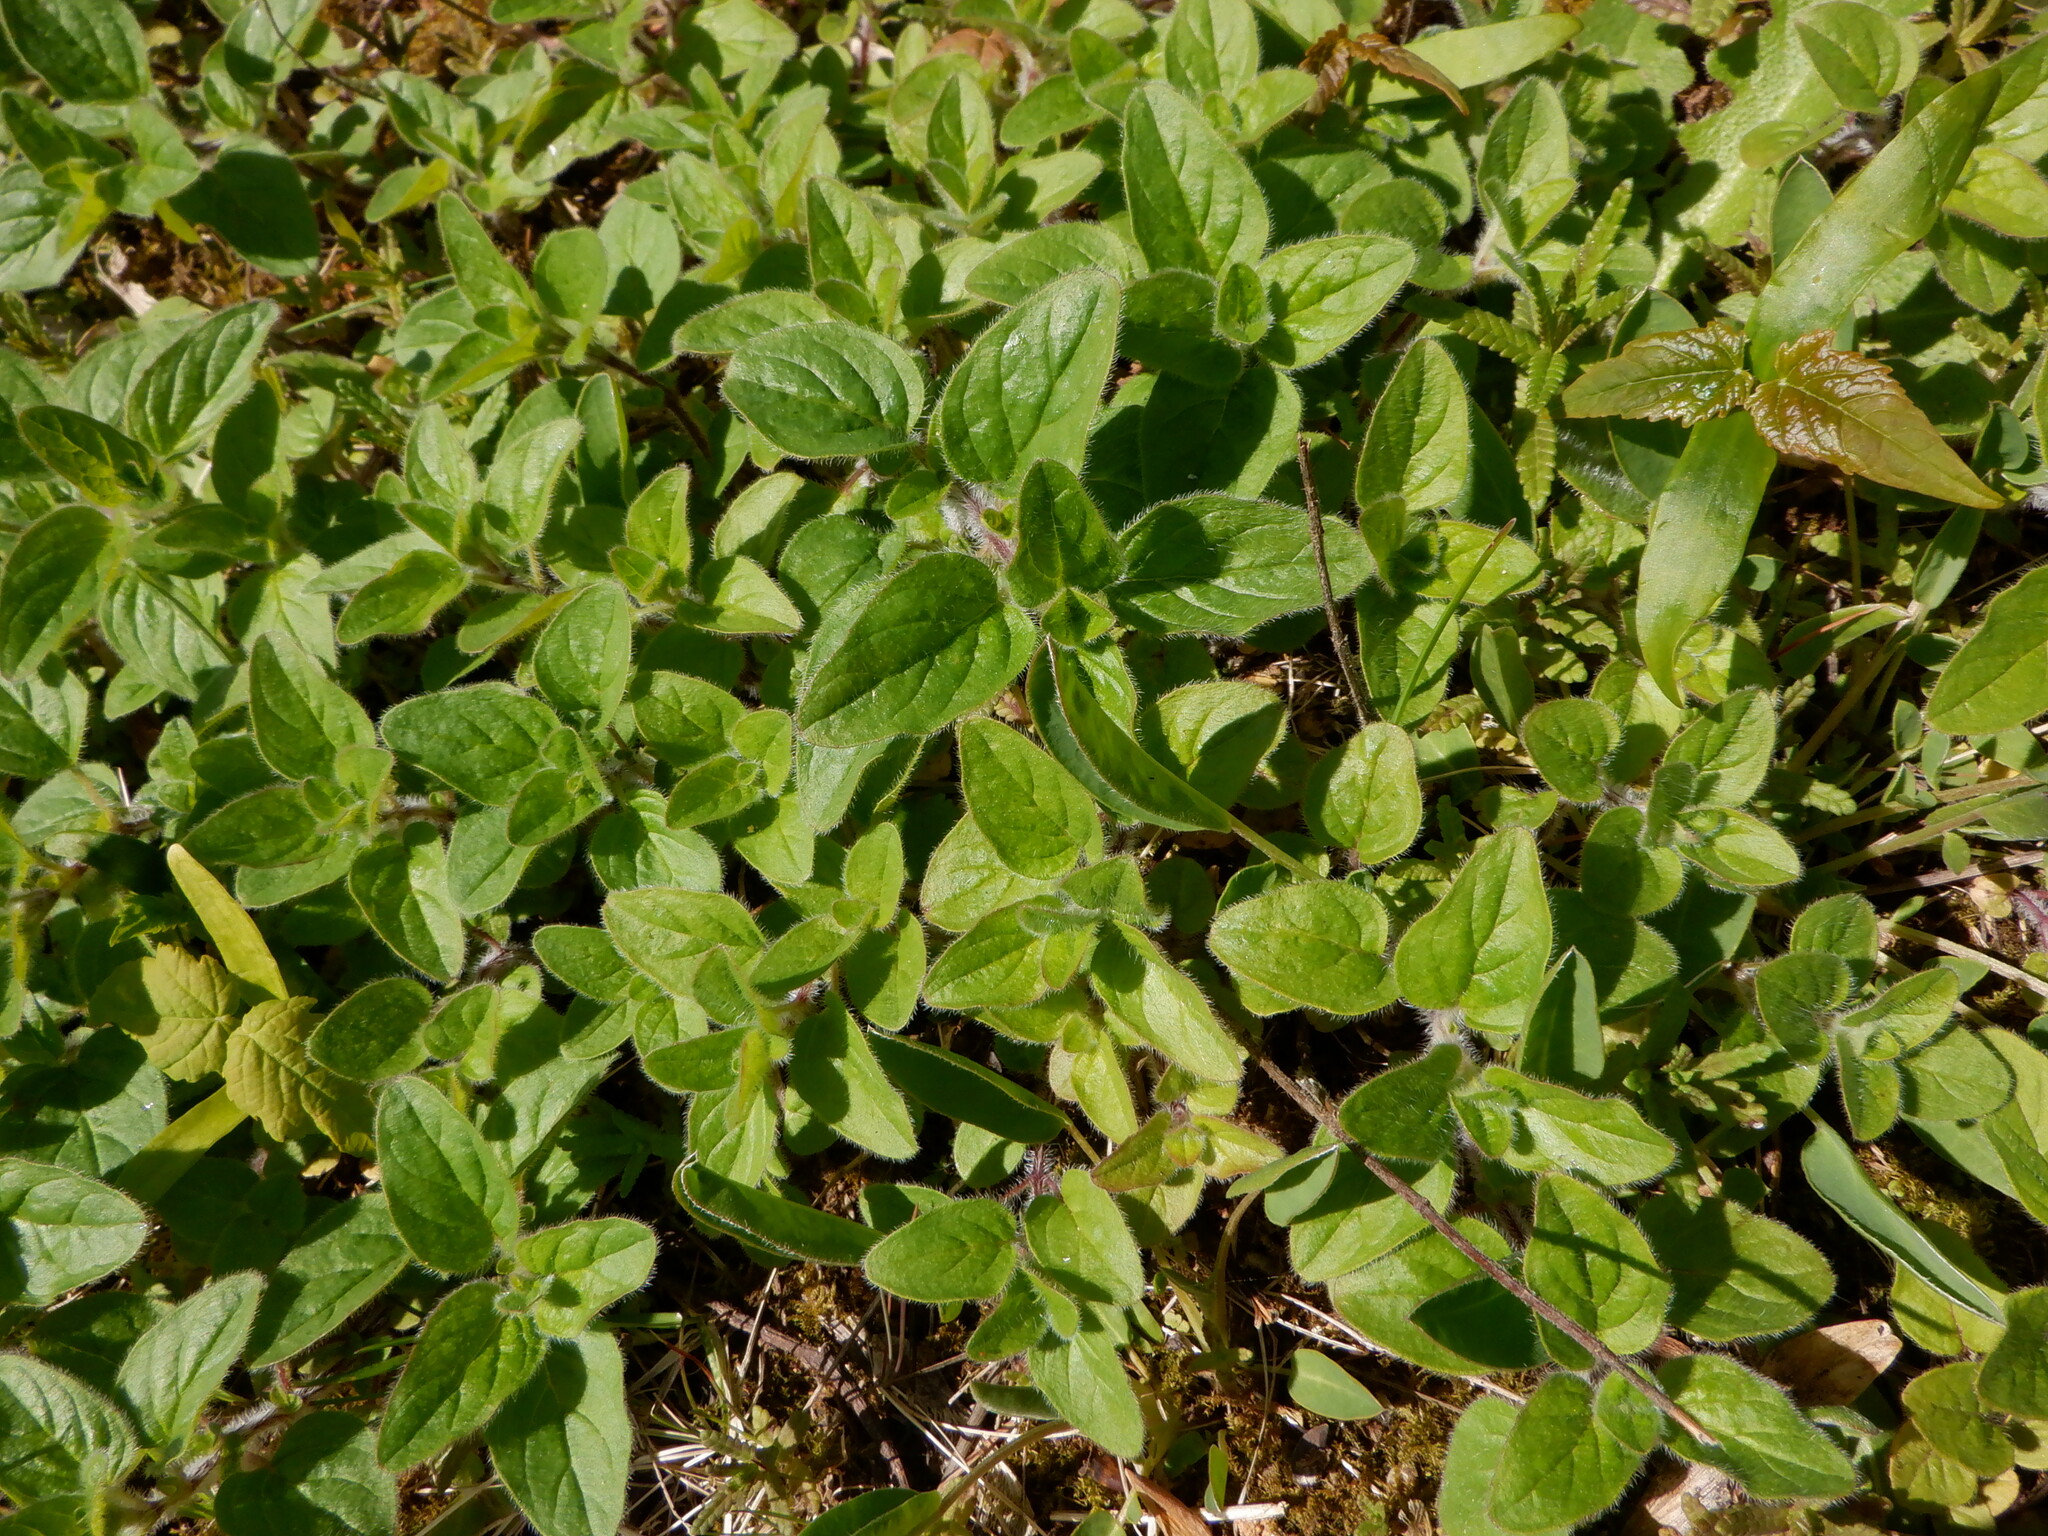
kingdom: Plantae
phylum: Tracheophyta
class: Magnoliopsida
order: Lamiales
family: Lamiaceae
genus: Origanum
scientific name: Origanum vulgare
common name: Wild marjoram
